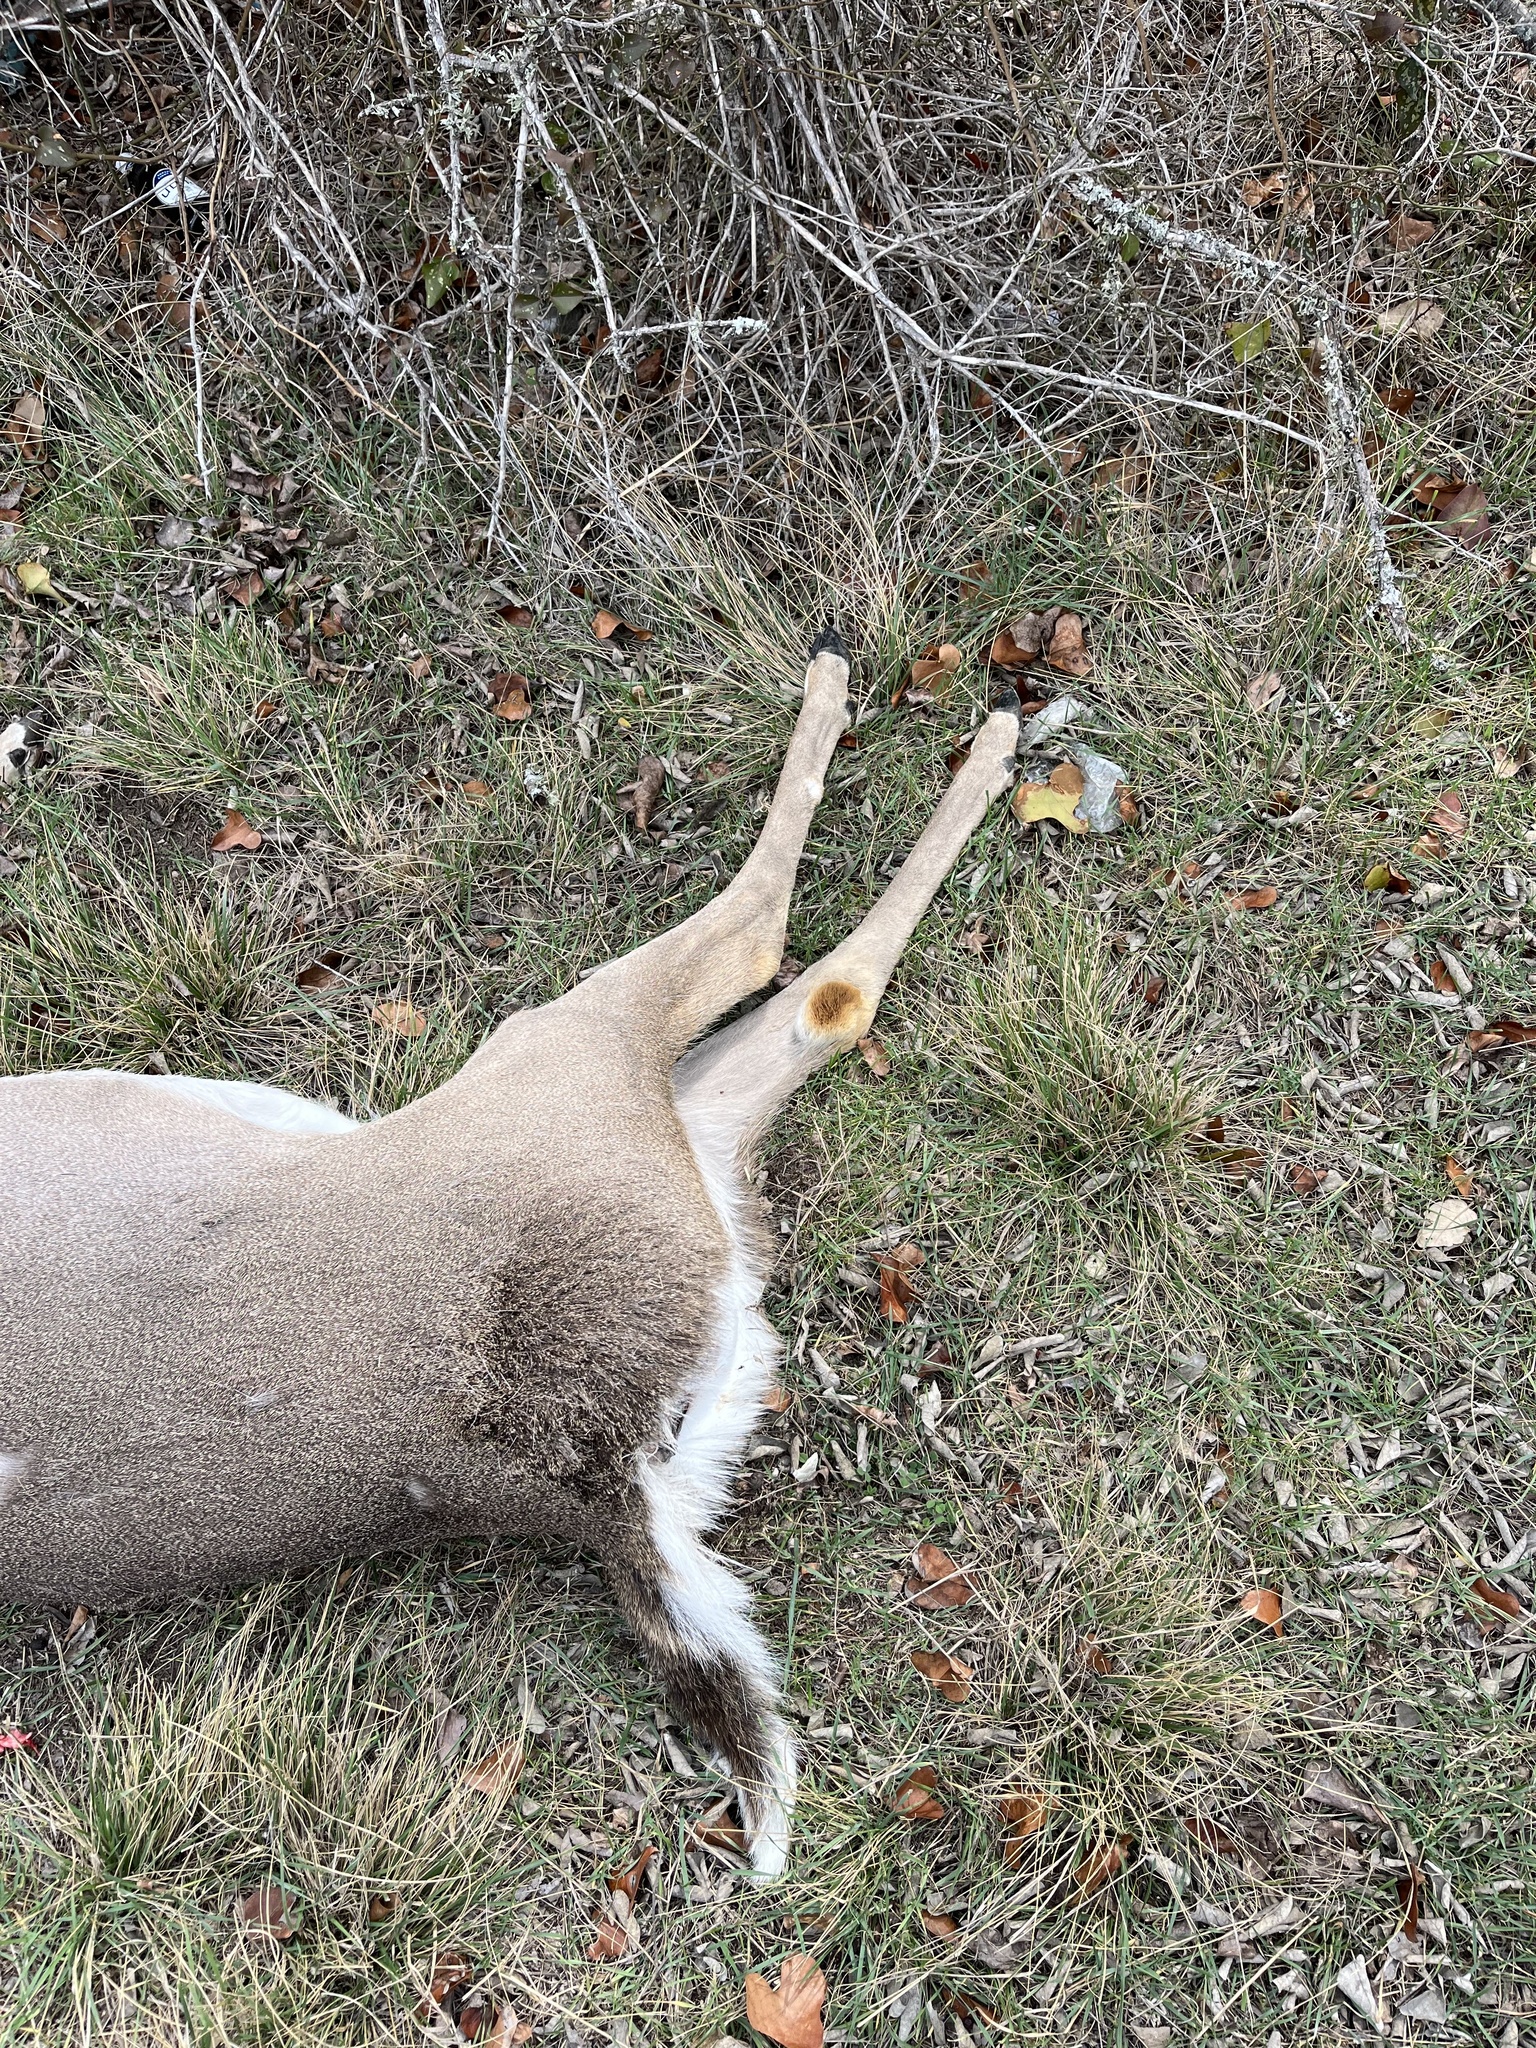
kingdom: Animalia
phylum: Chordata
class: Mammalia
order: Artiodactyla
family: Cervidae
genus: Odocoileus
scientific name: Odocoileus virginianus
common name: White-tailed deer
